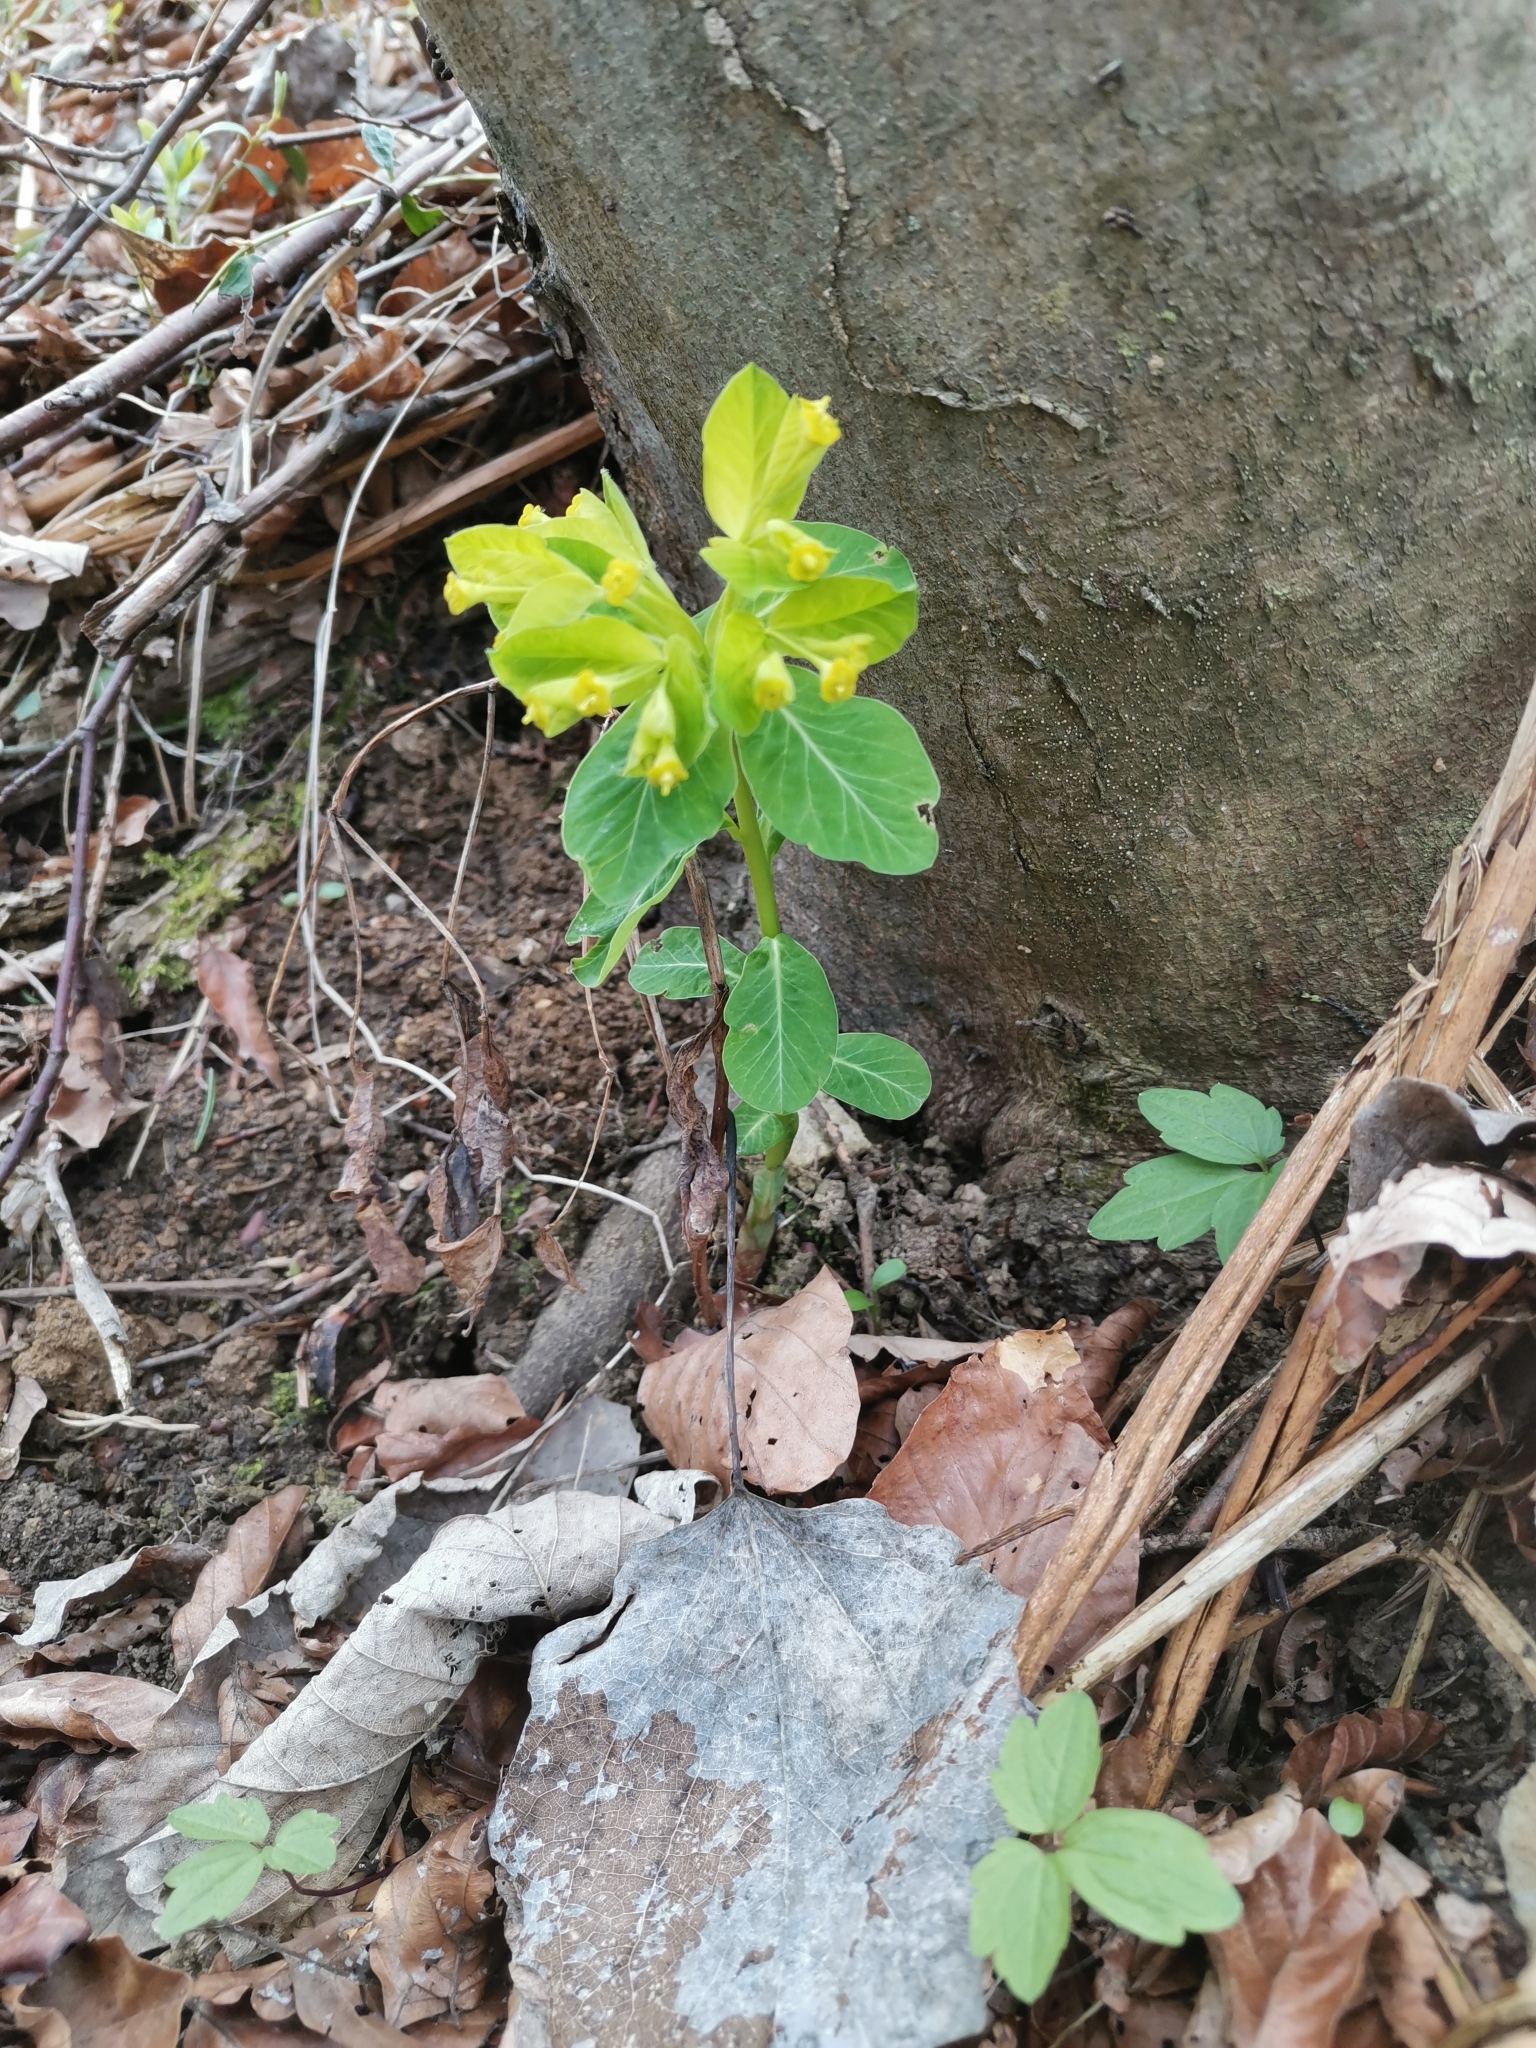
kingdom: Plantae
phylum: Tracheophyta
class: Magnoliopsida
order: Malpighiales
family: Euphorbiaceae
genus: Euphorbia
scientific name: Euphorbia carniolica
